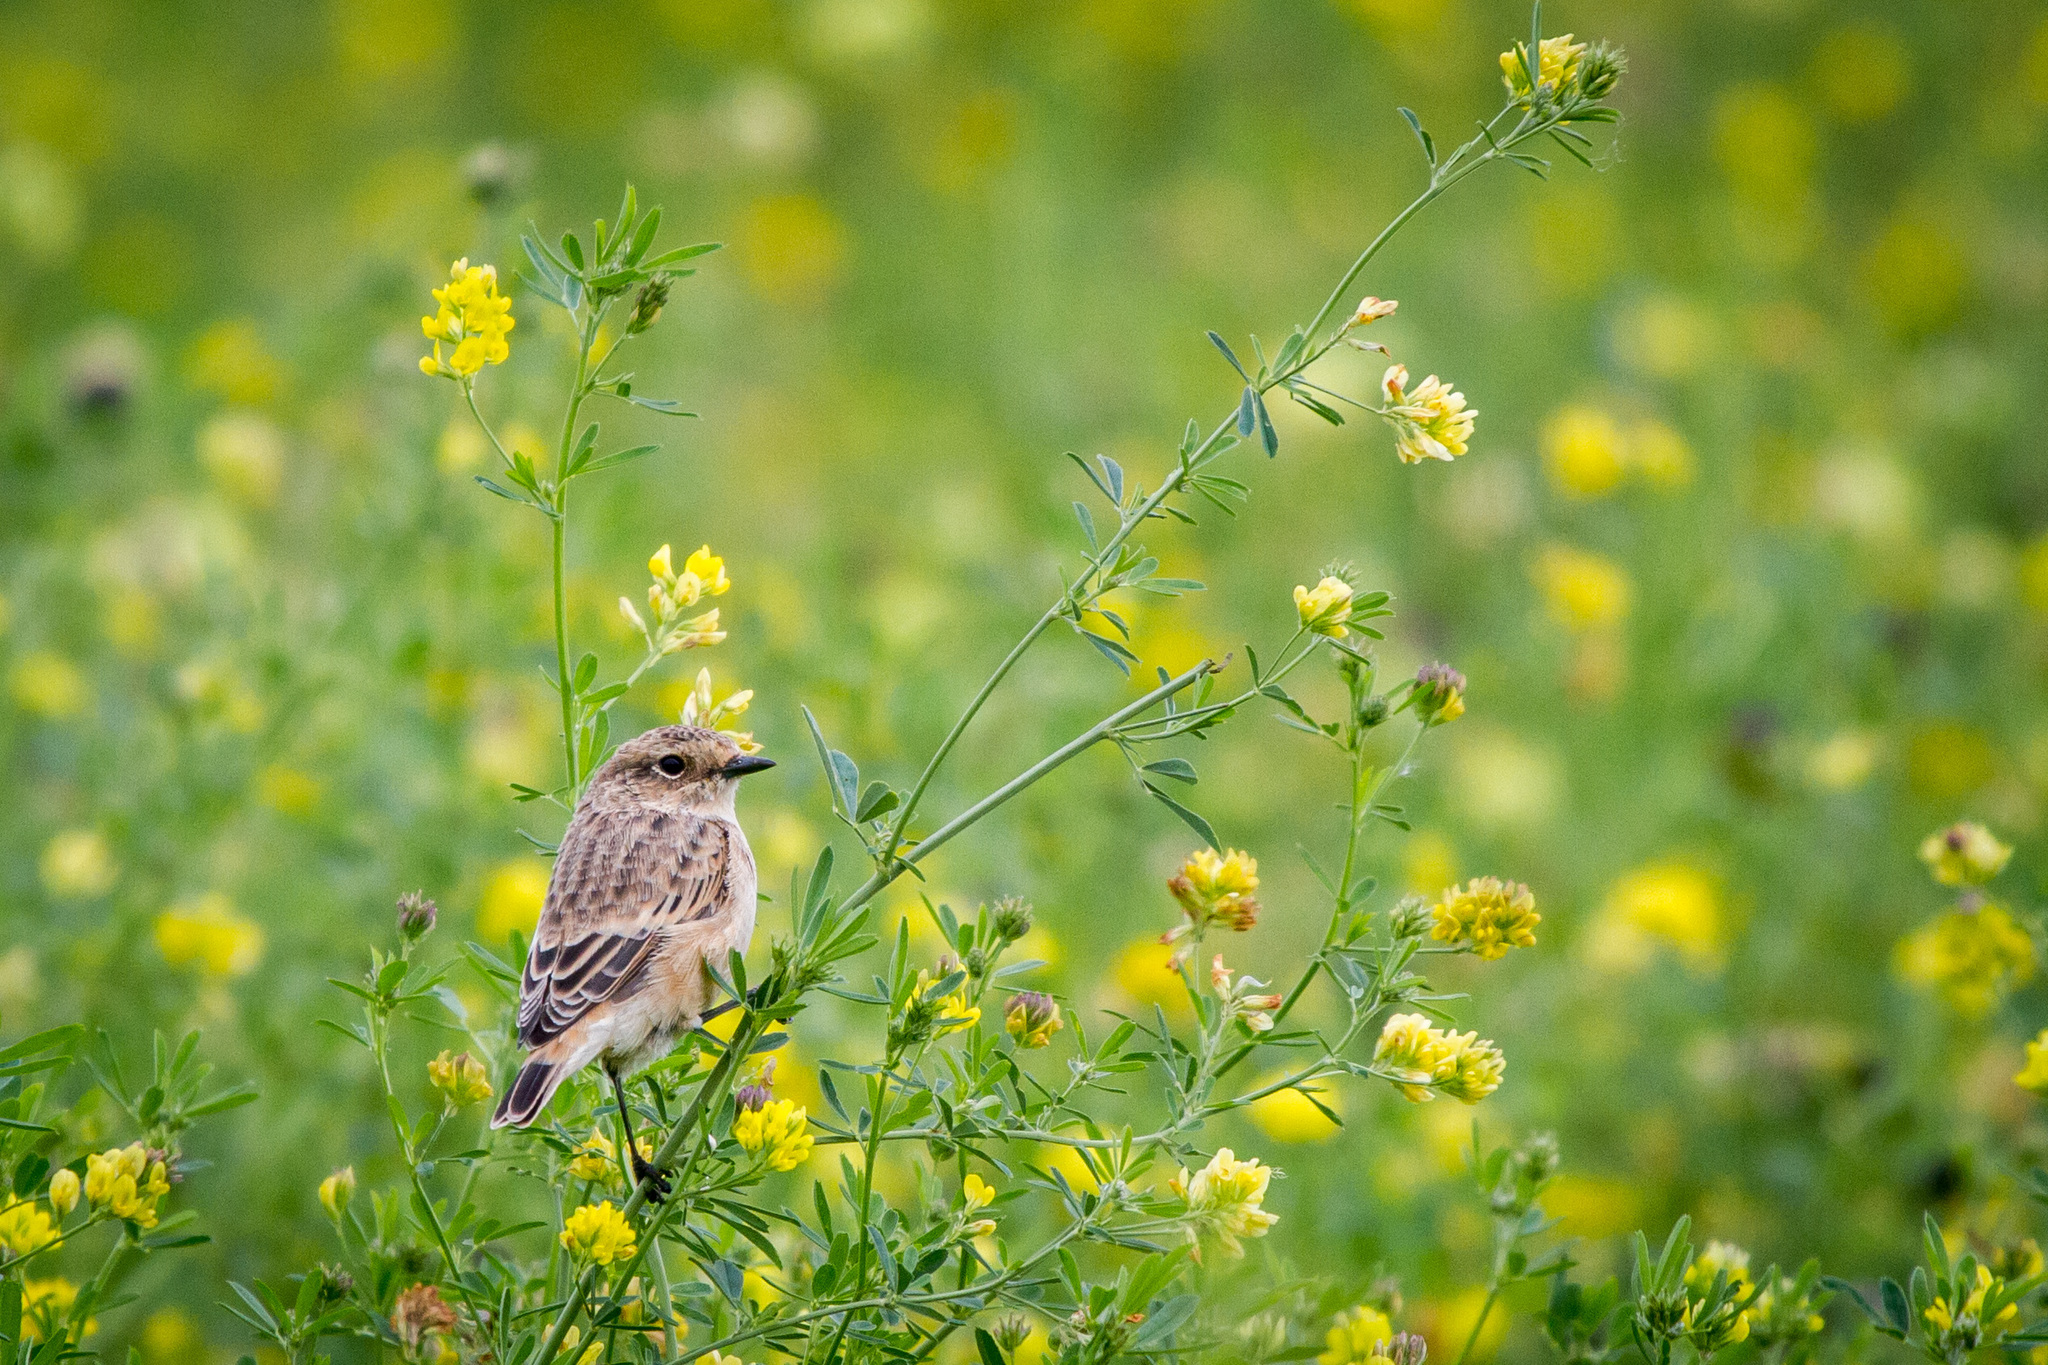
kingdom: Animalia
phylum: Chordata
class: Aves
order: Passeriformes
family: Muscicapidae
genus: Saxicola
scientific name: Saxicola maurus
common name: Siberian stonechat
